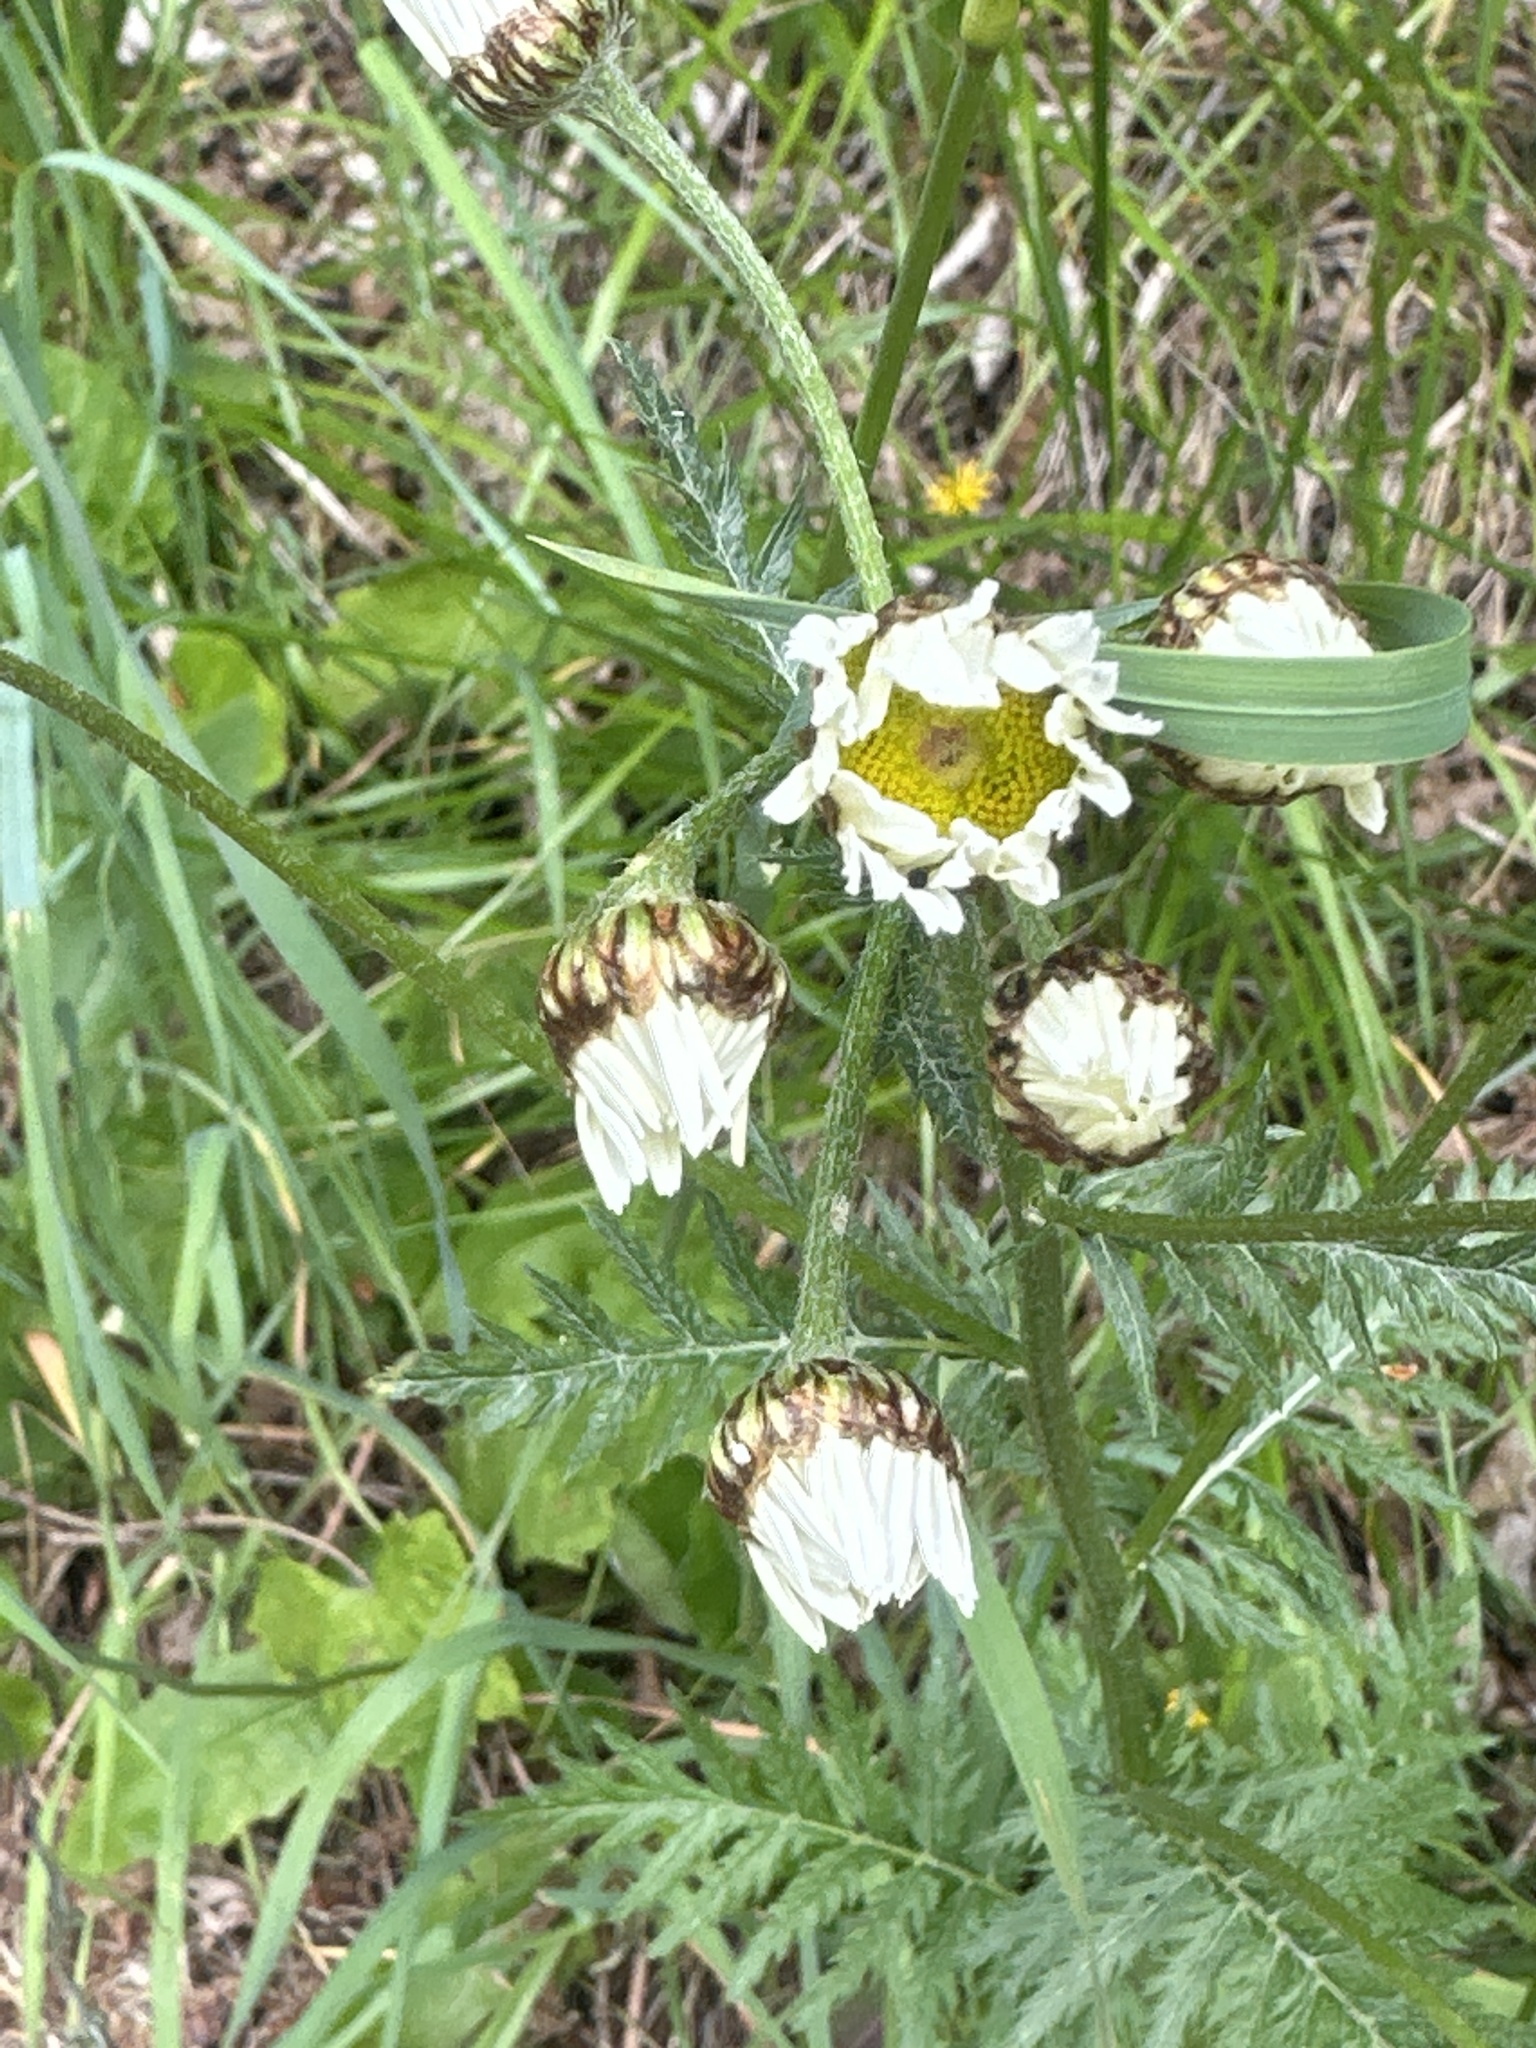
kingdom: Plantae
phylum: Tracheophyta
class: Magnoliopsida
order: Asterales
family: Asteraceae
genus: Tanacetum
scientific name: Tanacetum corymbosum
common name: Scentless feverfew
